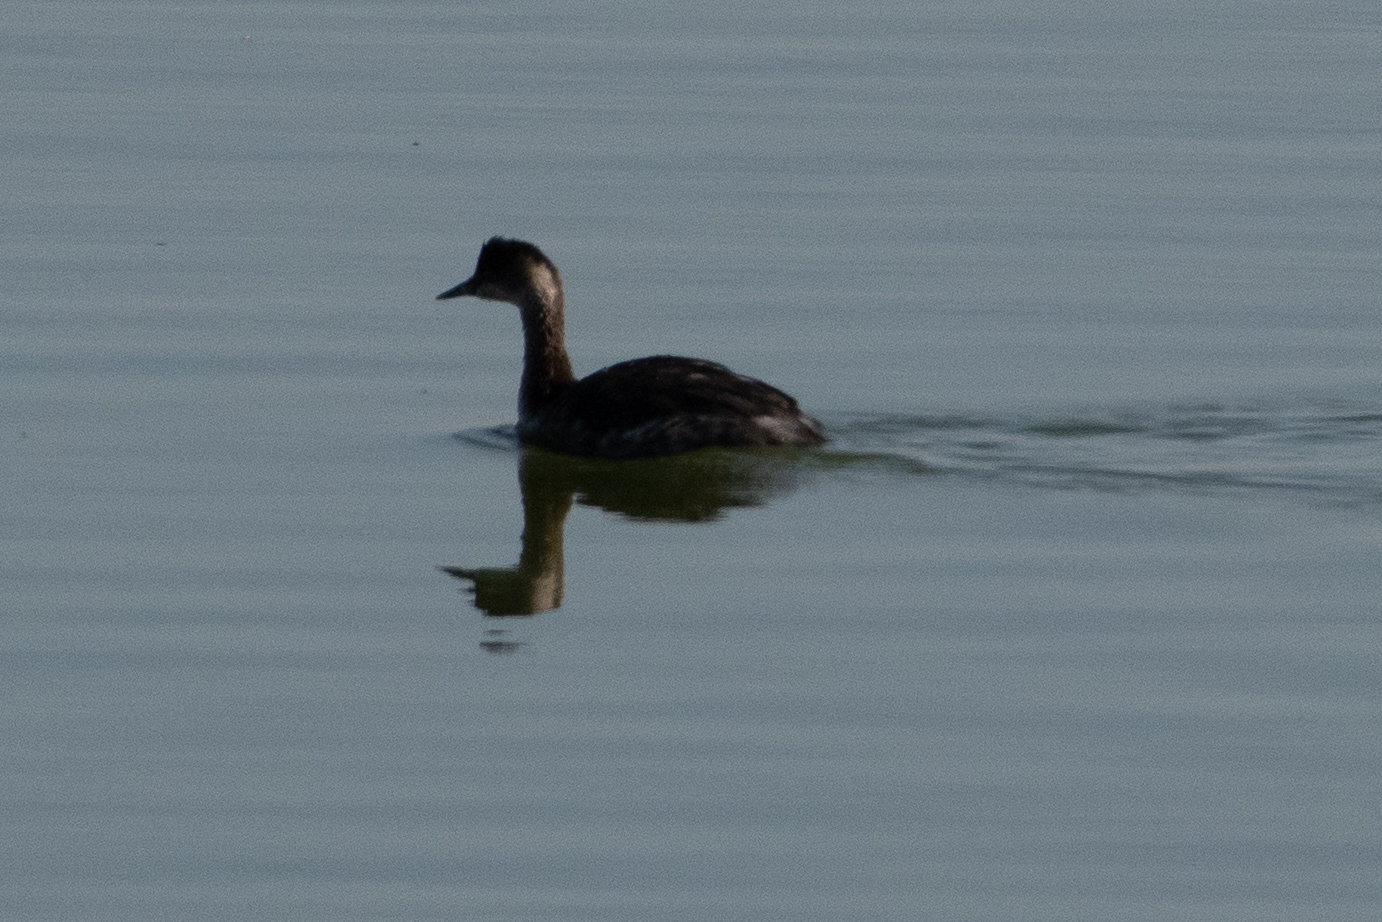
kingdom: Animalia
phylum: Chordata
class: Aves
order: Podicipediformes
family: Podicipedidae
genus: Podiceps
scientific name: Podiceps nigricollis
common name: Black-necked grebe
